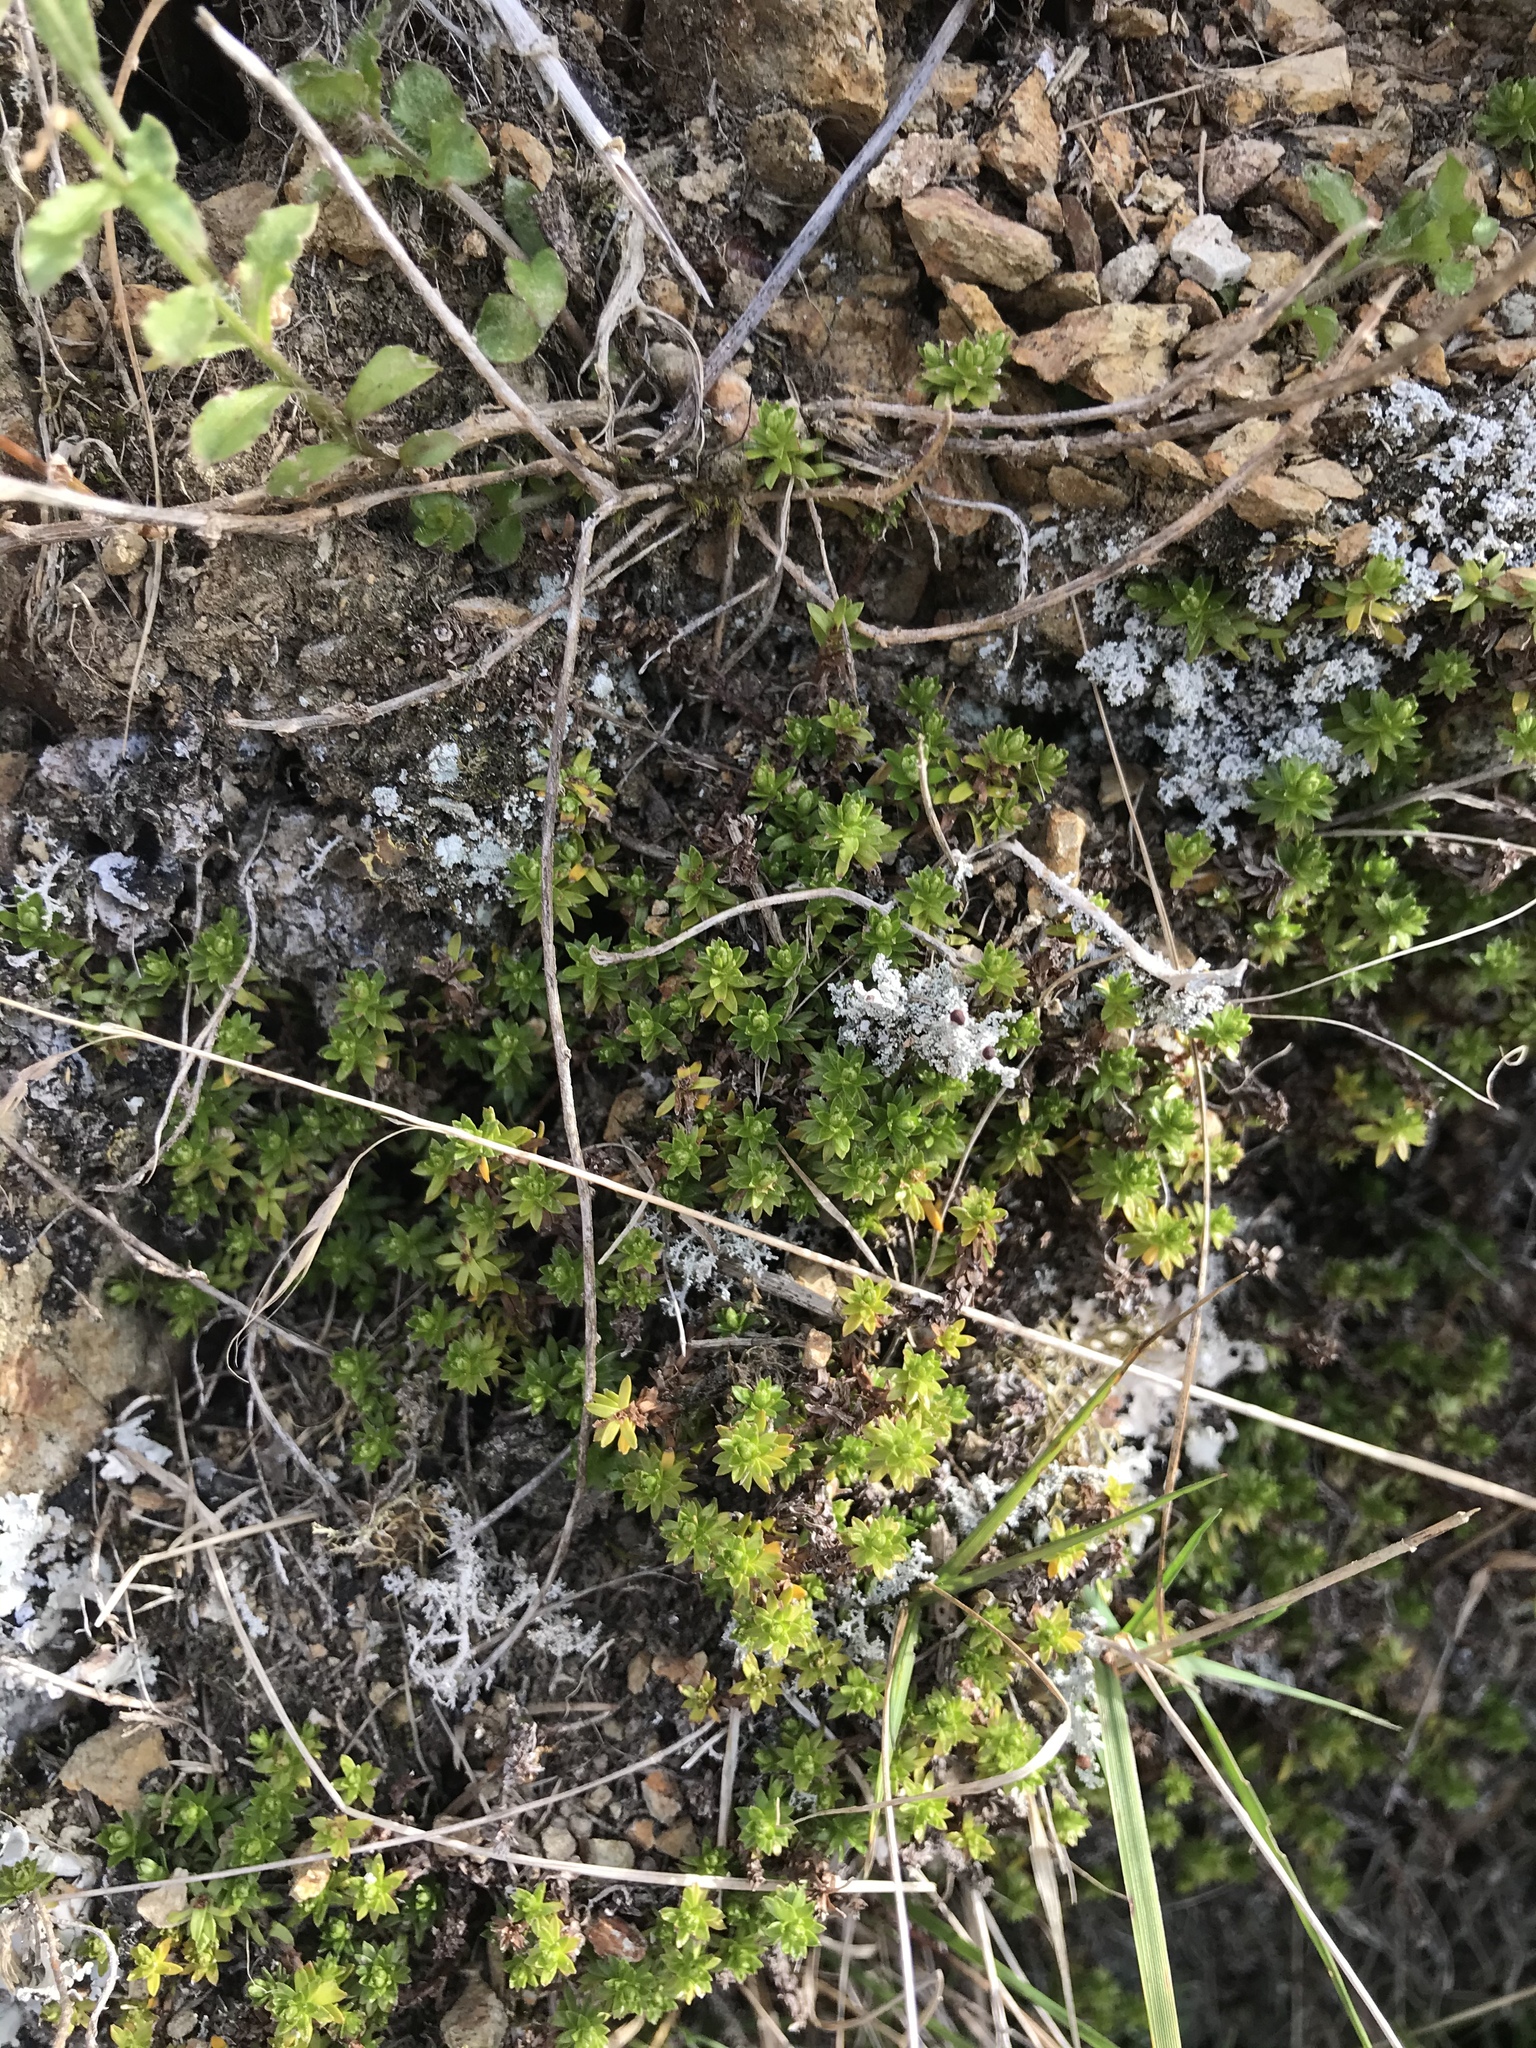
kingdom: Plantae
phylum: Tracheophyta
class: Magnoliopsida
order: Asterales
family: Asteraceae
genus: Raoulia
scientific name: Raoulia glabra
